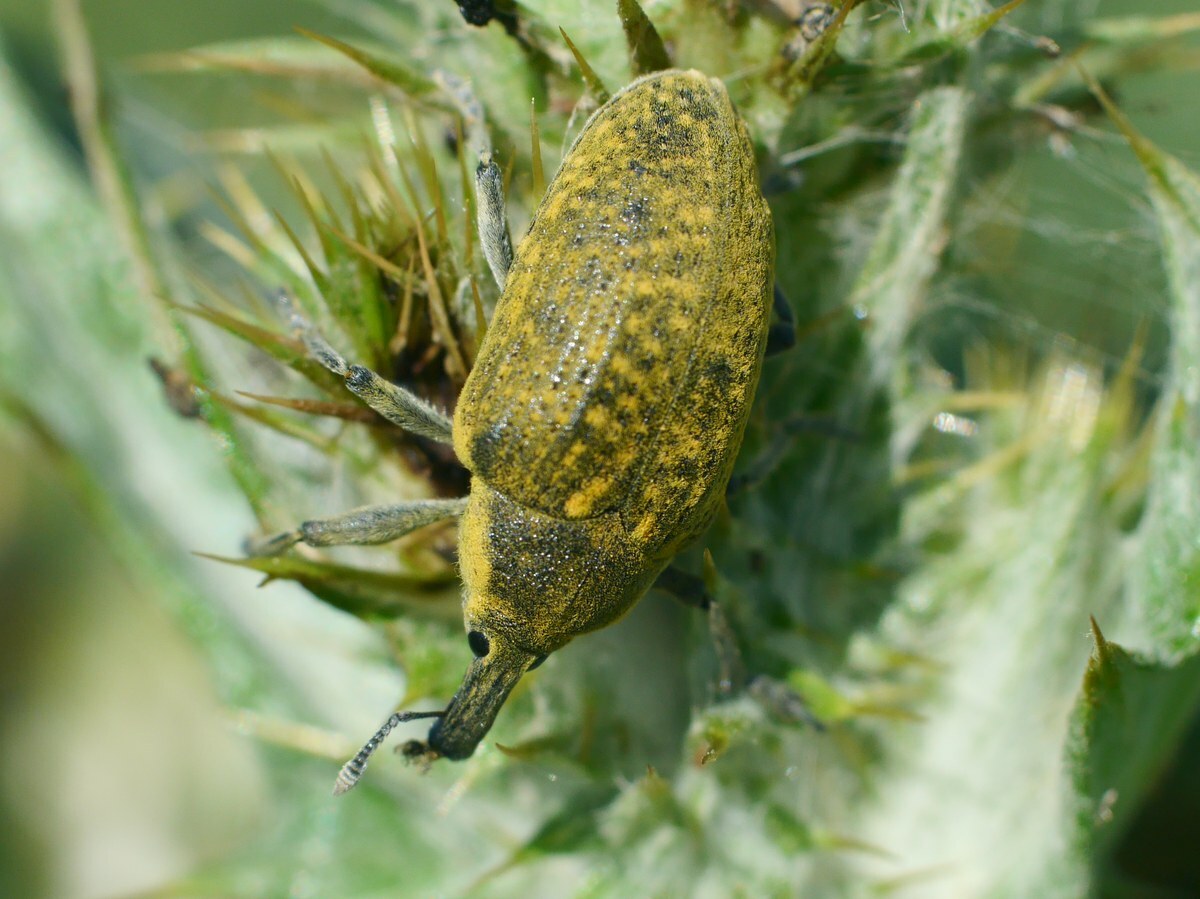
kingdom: Animalia
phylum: Arthropoda
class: Insecta
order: Coleoptera
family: Curculionidae
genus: Larinus
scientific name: Larinus latus
